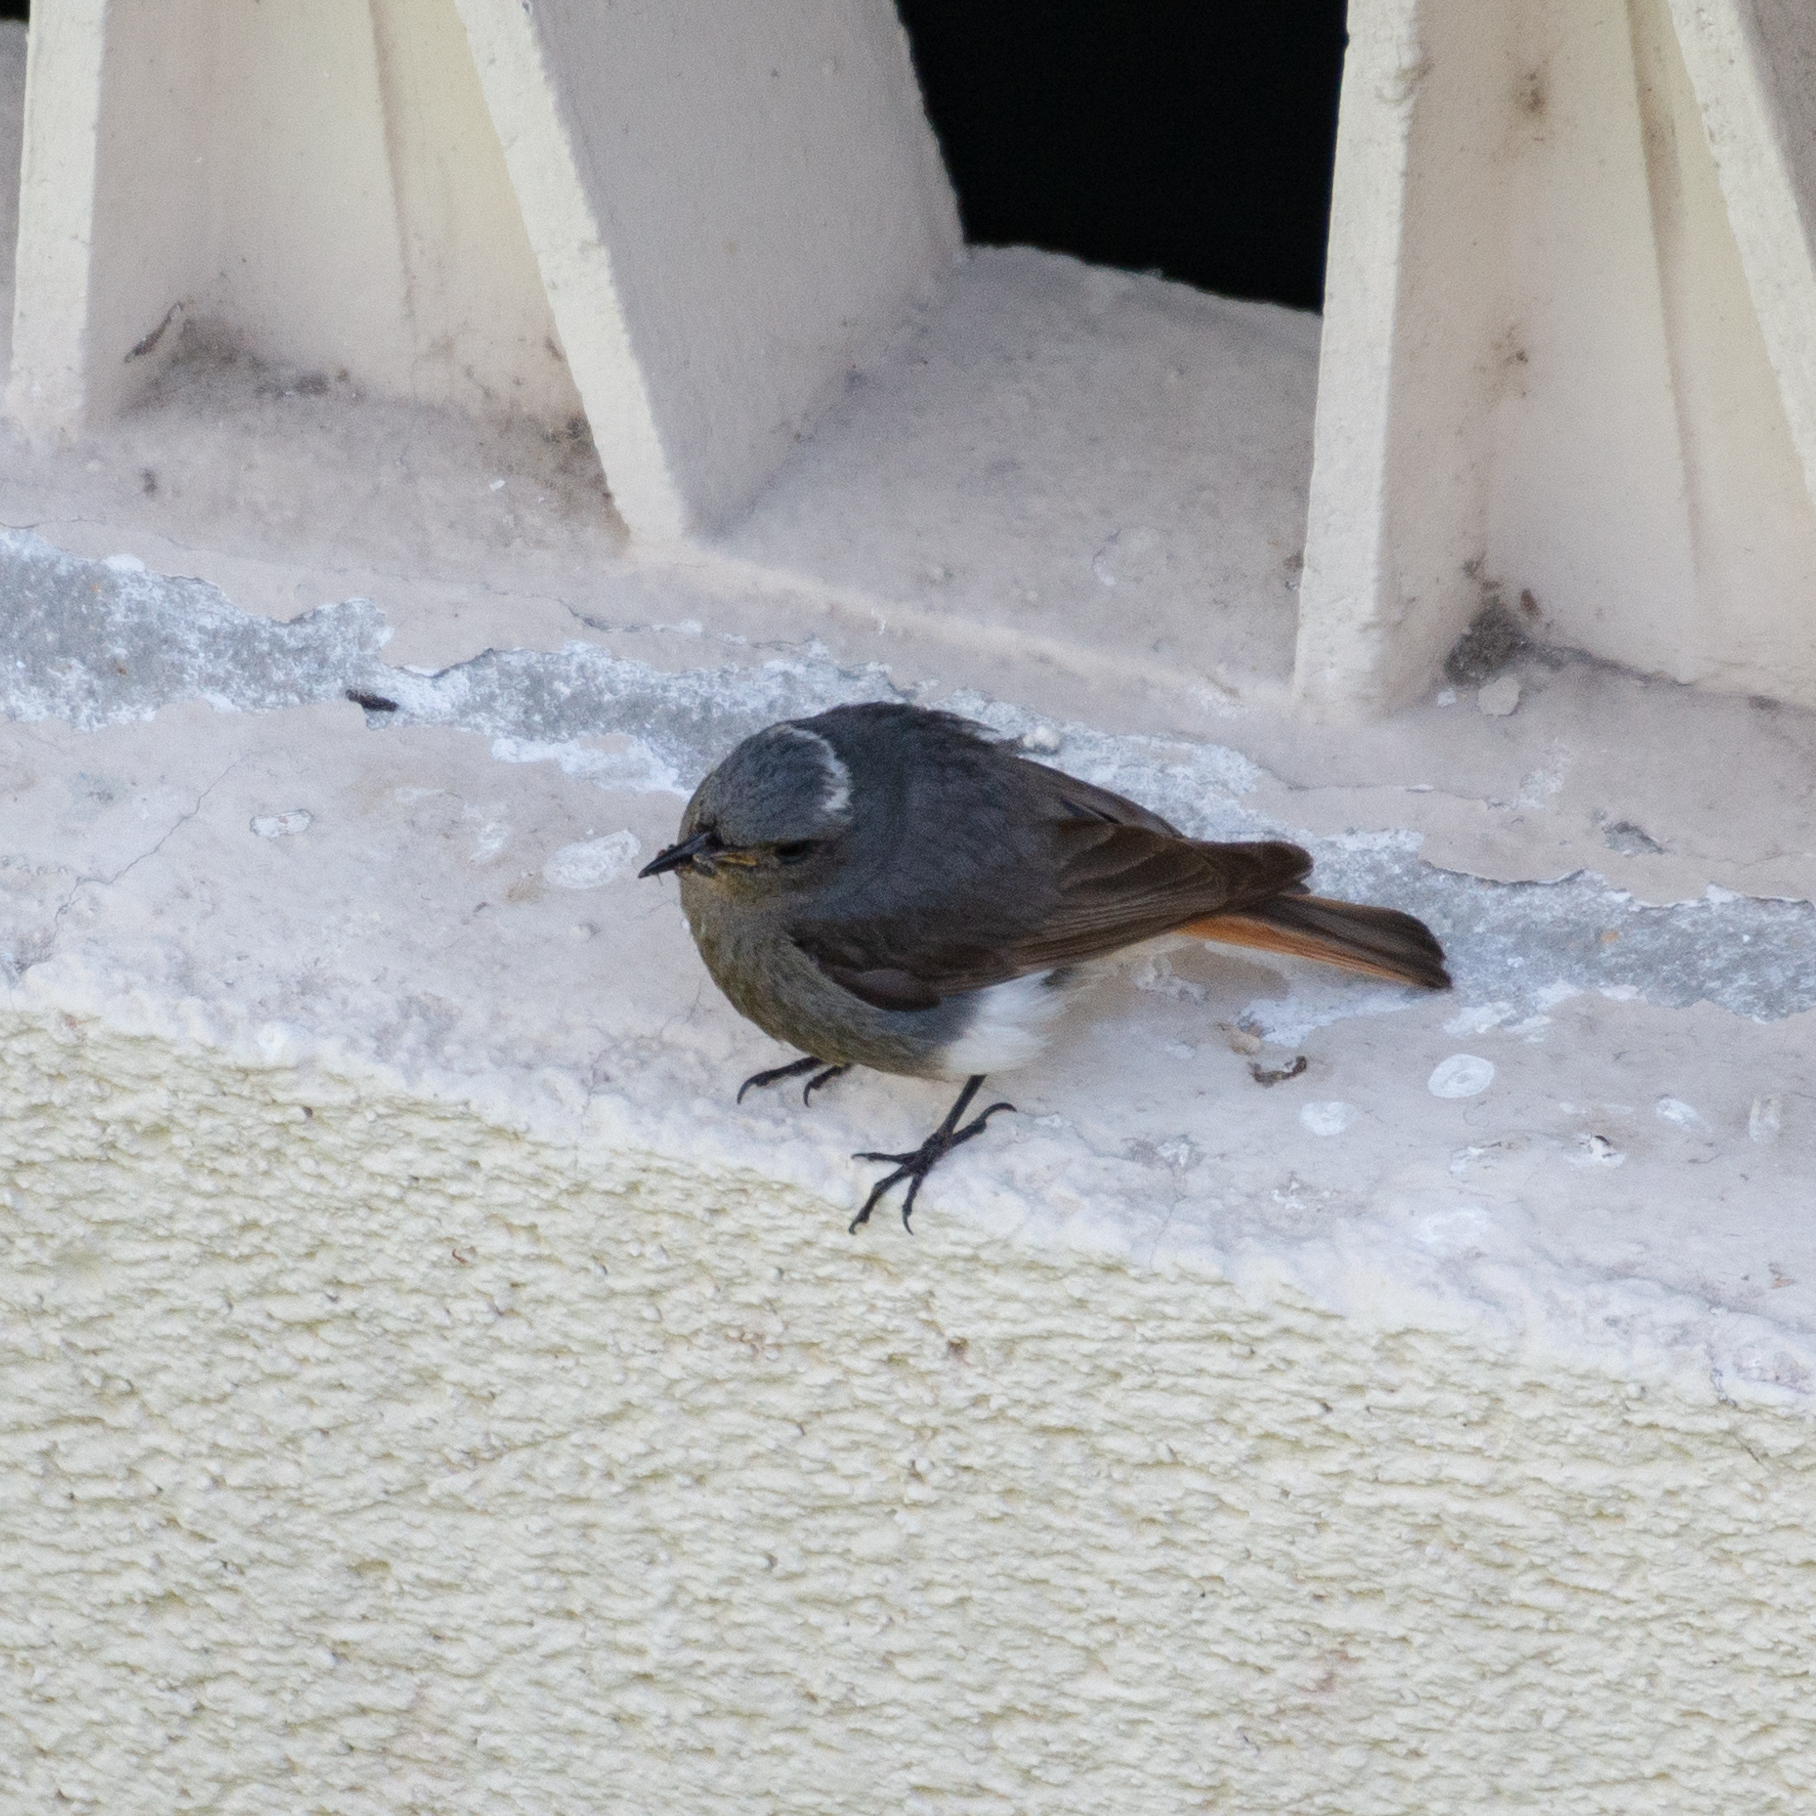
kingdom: Animalia
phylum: Chordata
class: Aves
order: Passeriformes
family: Muscicapidae
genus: Phoenicurus
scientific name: Phoenicurus ochruros
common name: Black redstart
